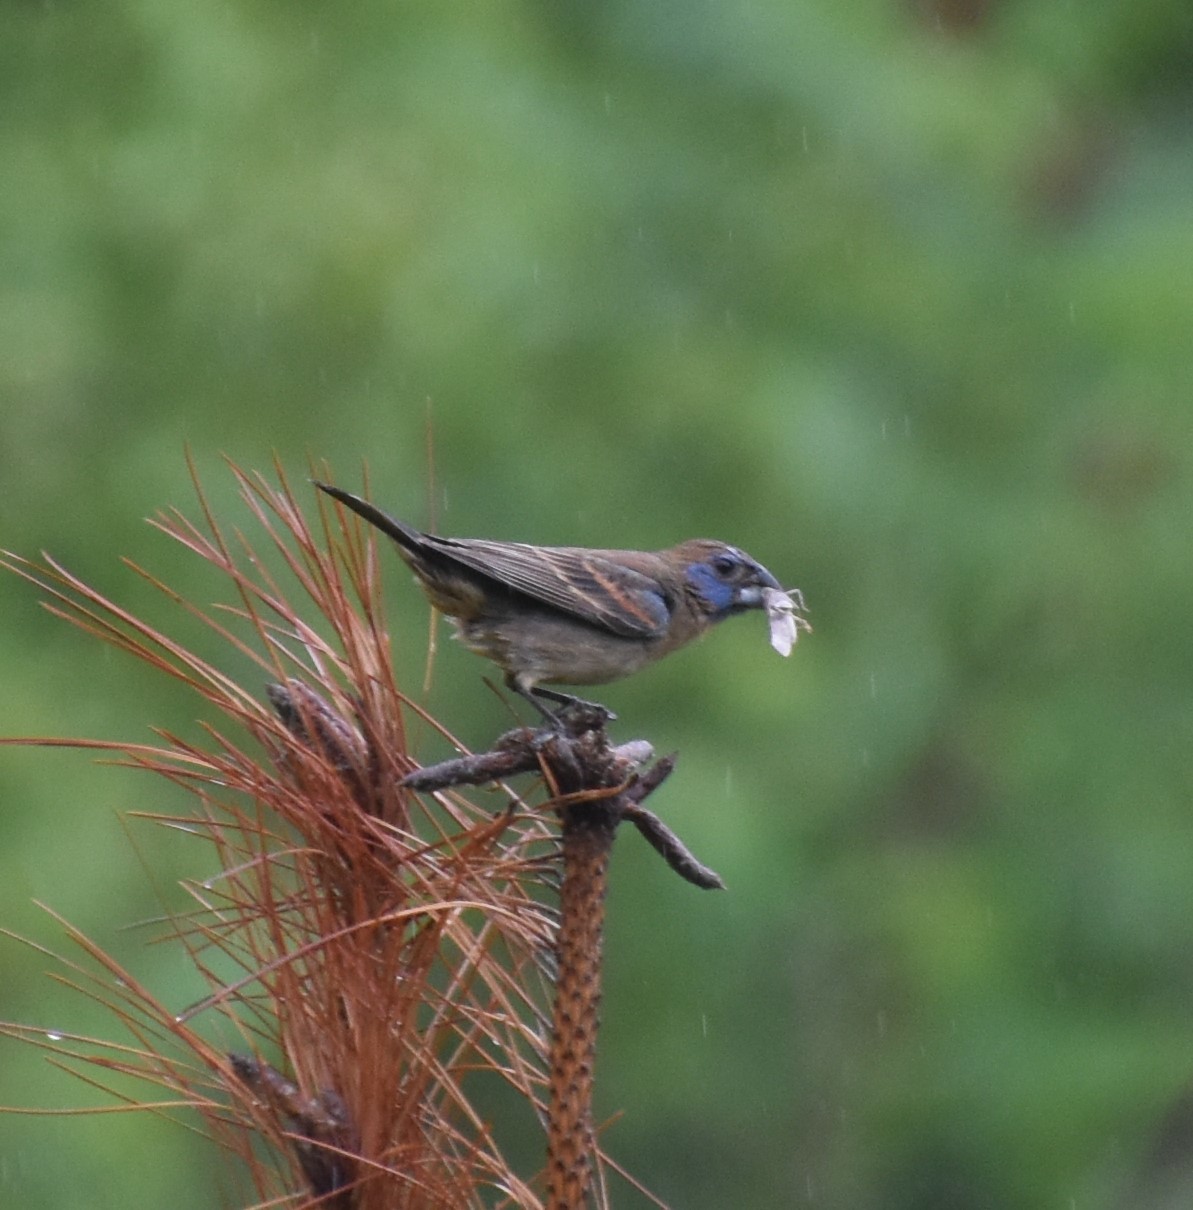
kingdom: Animalia
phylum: Chordata
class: Aves
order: Passeriformes
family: Cardinalidae
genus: Passerina
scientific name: Passerina caerulea
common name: Blue grosbeak
